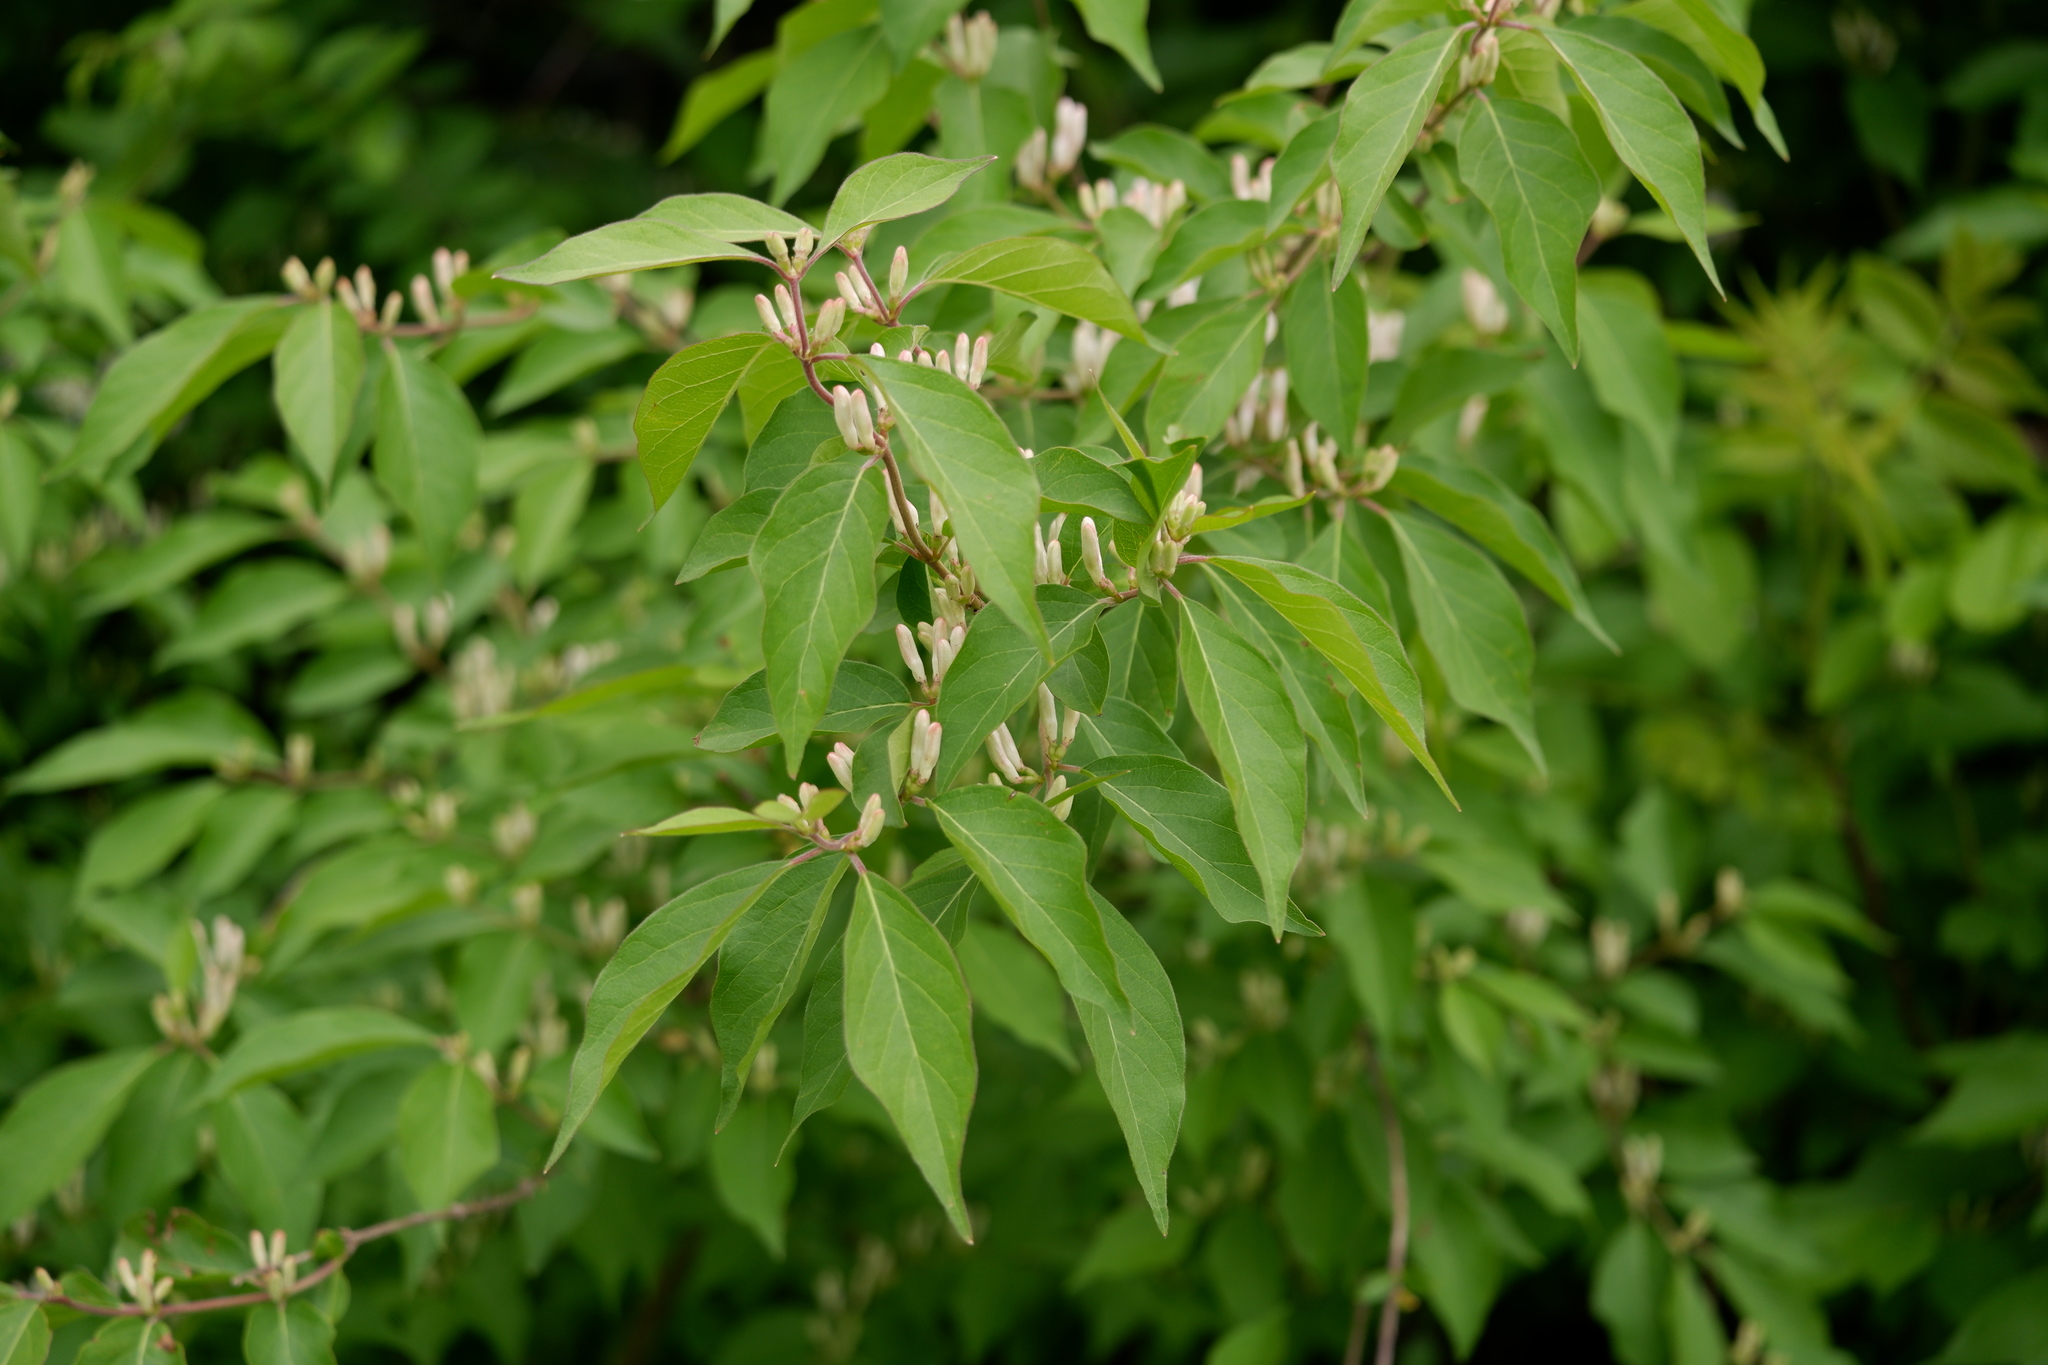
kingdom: Plantae
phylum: Tracheophyta
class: Magnoliopsida
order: Dipsacales
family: Caprifoliaceae
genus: Lonicera
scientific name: Lonicera maackii
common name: Amur honeysuckle
